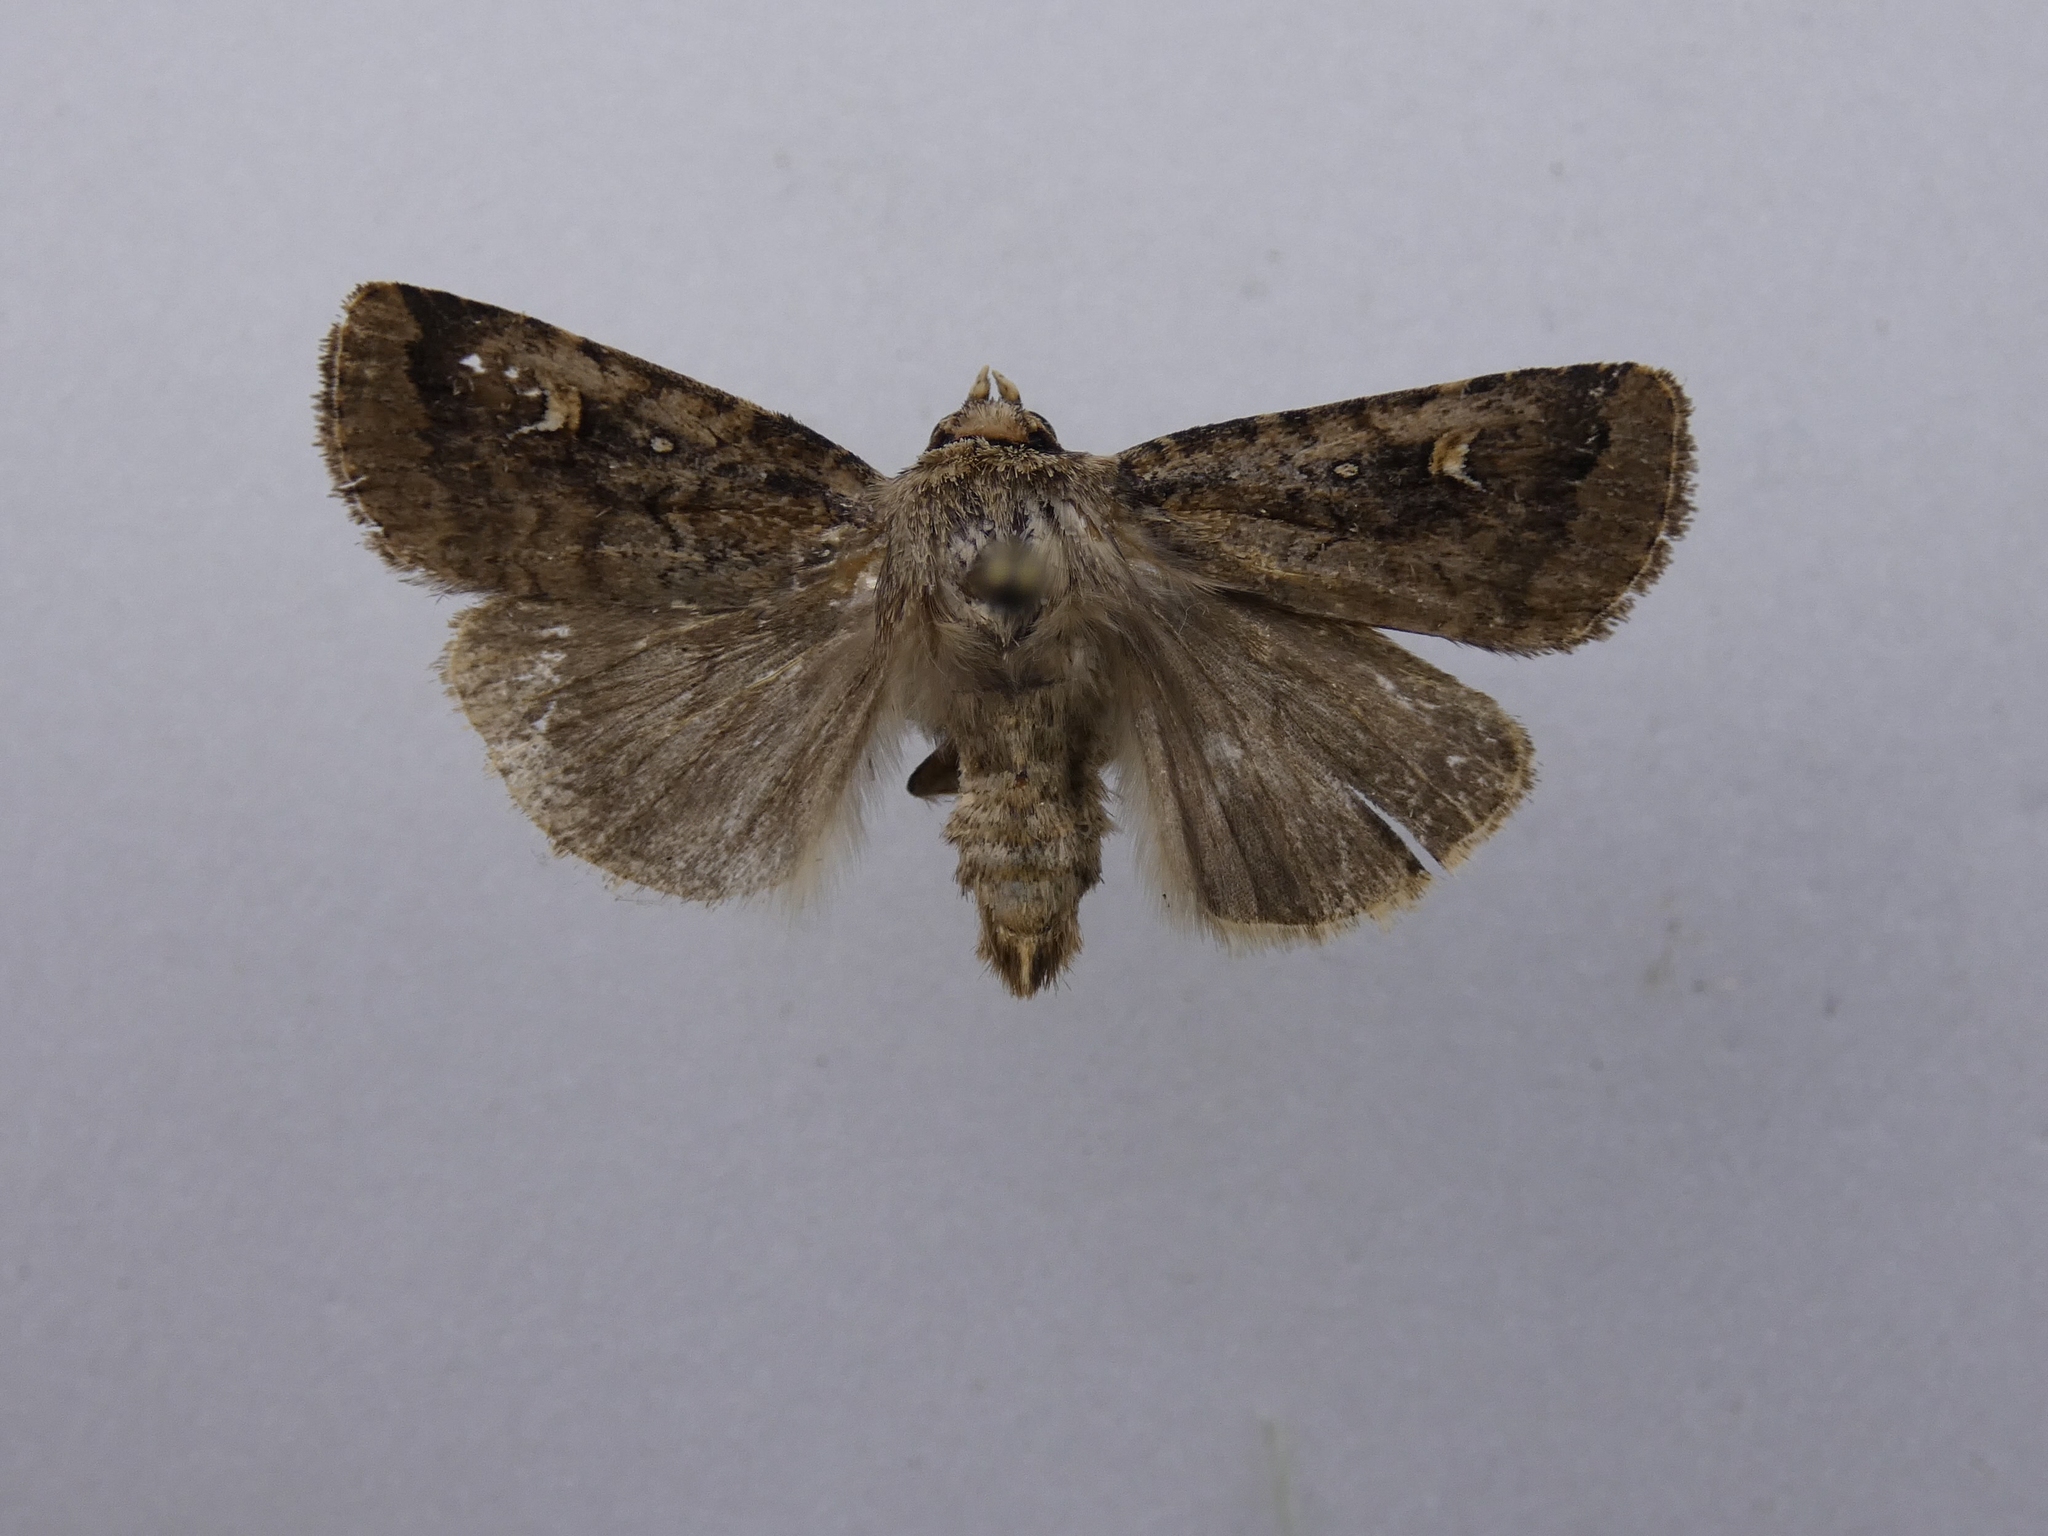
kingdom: Animalia
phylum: Arthropoda
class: Insecta
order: Lepidoptera
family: Noctuidae
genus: Proteuxoa
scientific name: Proteuxoa tetronycha
